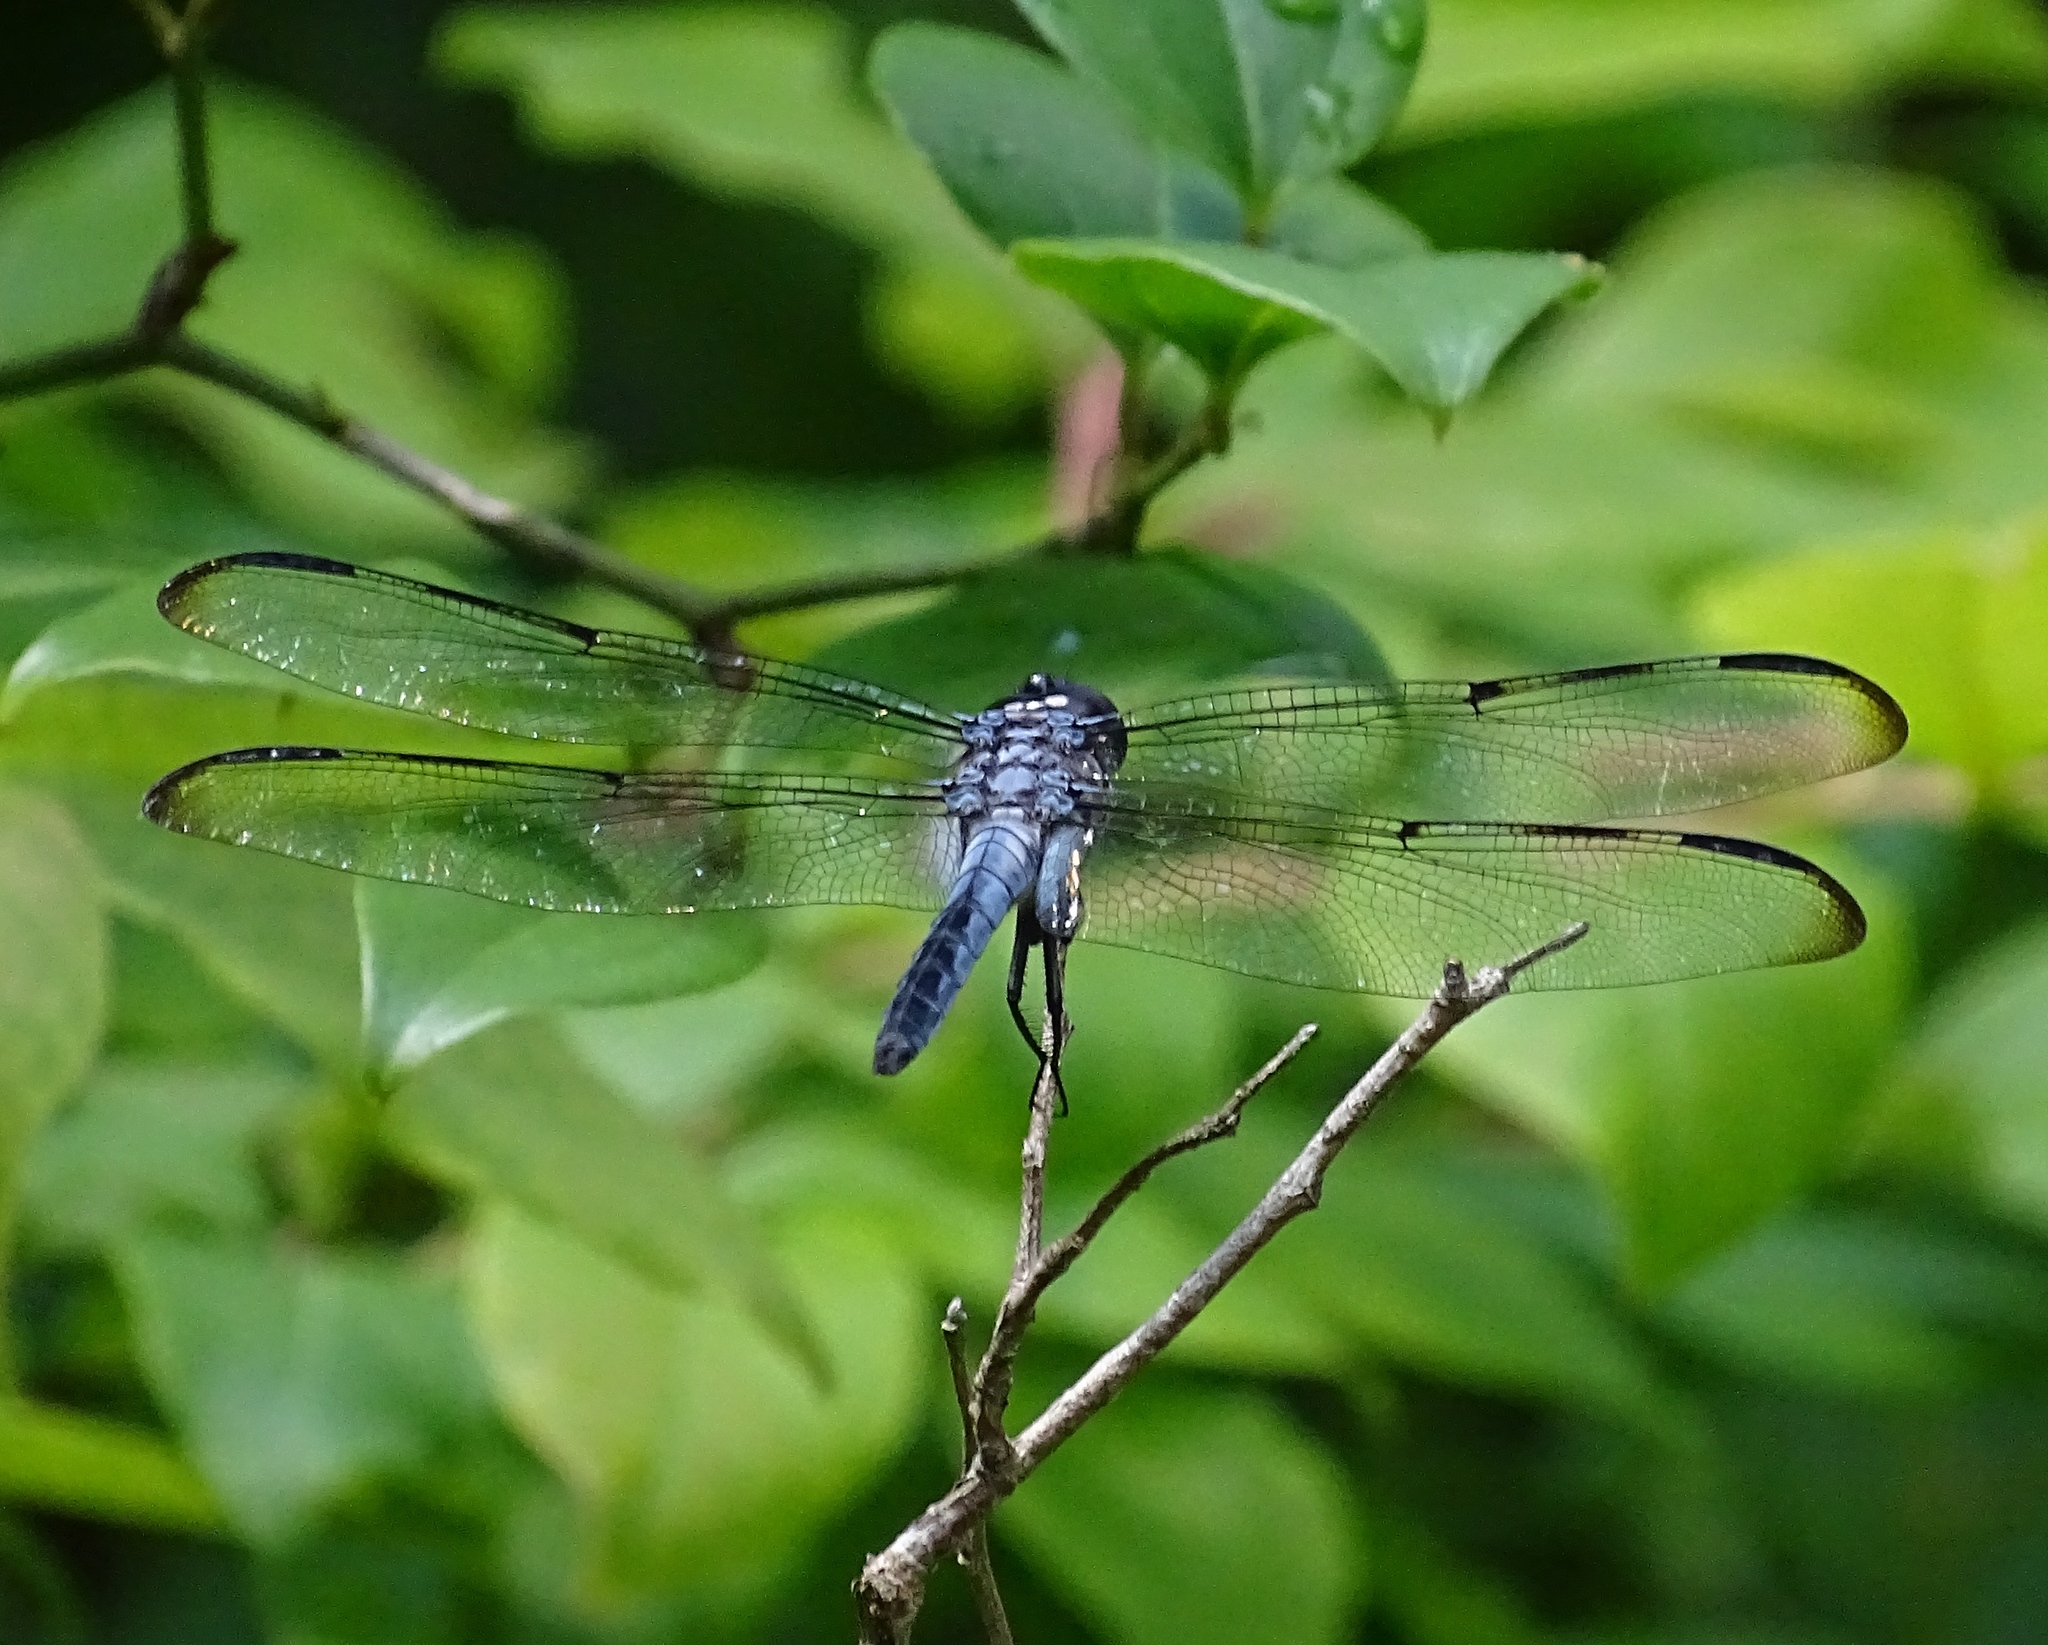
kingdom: Animalia
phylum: Arthropoda
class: Insecta
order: Odonata
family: Libellulidae
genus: Libellula
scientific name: Libellula axilena
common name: Bar-winged skimmer
